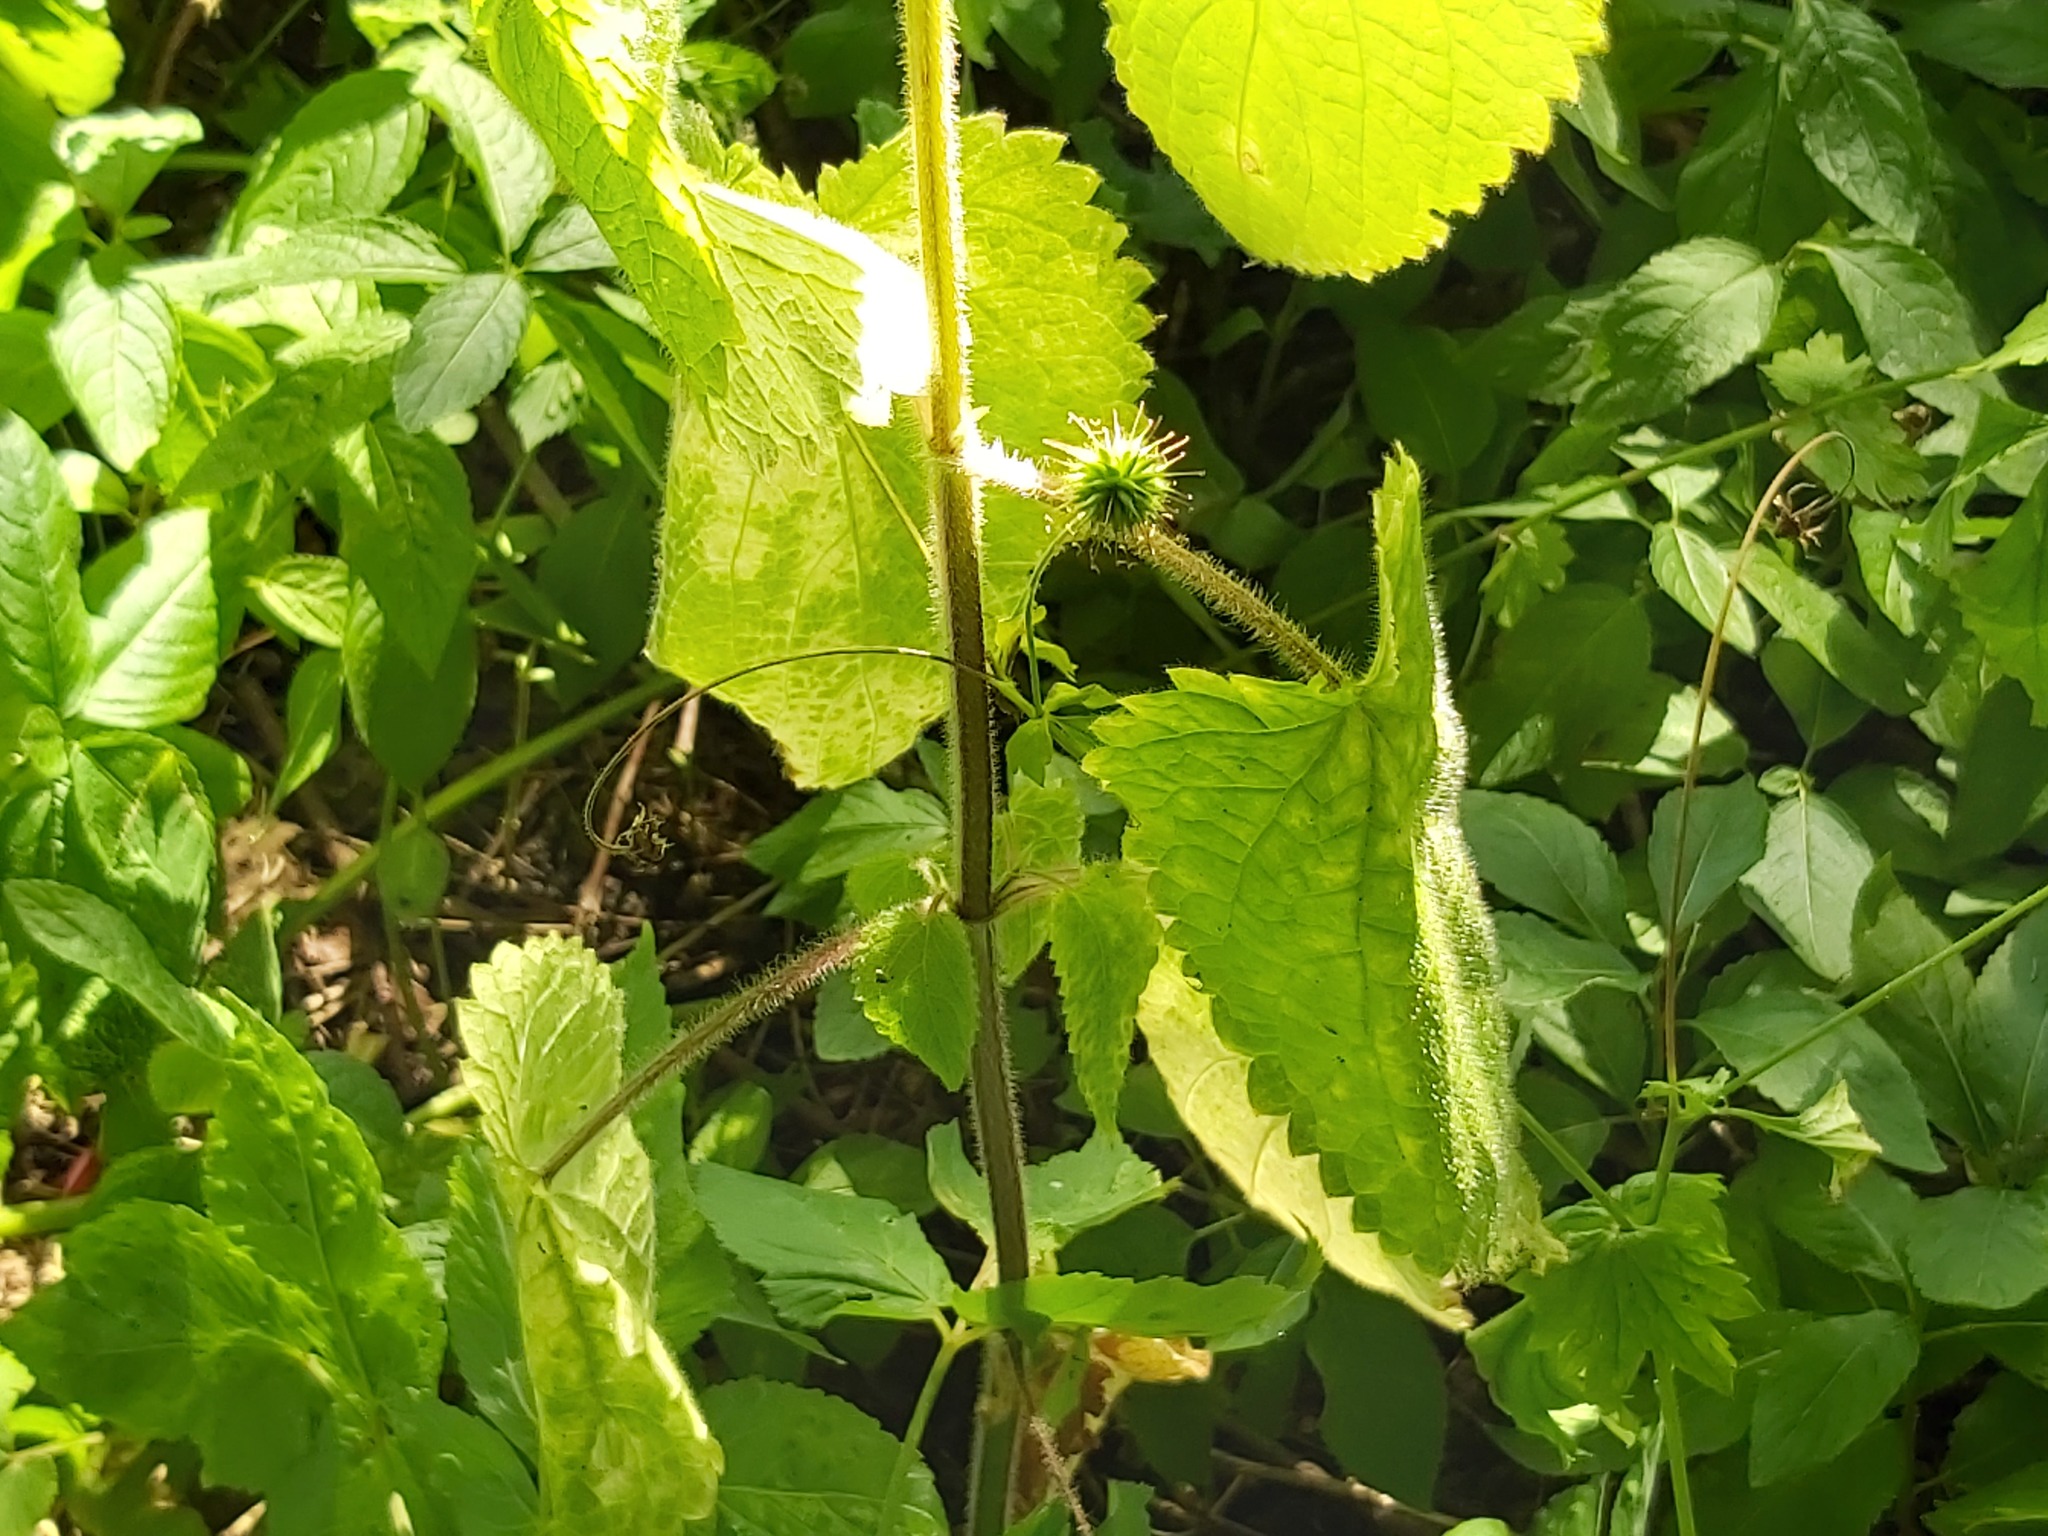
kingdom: Plantae
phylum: Tracheophyta
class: Magnoliopsida
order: Lamiales
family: Lamiaceae
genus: Stachys
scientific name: Stachys sylvatica
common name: Hedge woundwort
